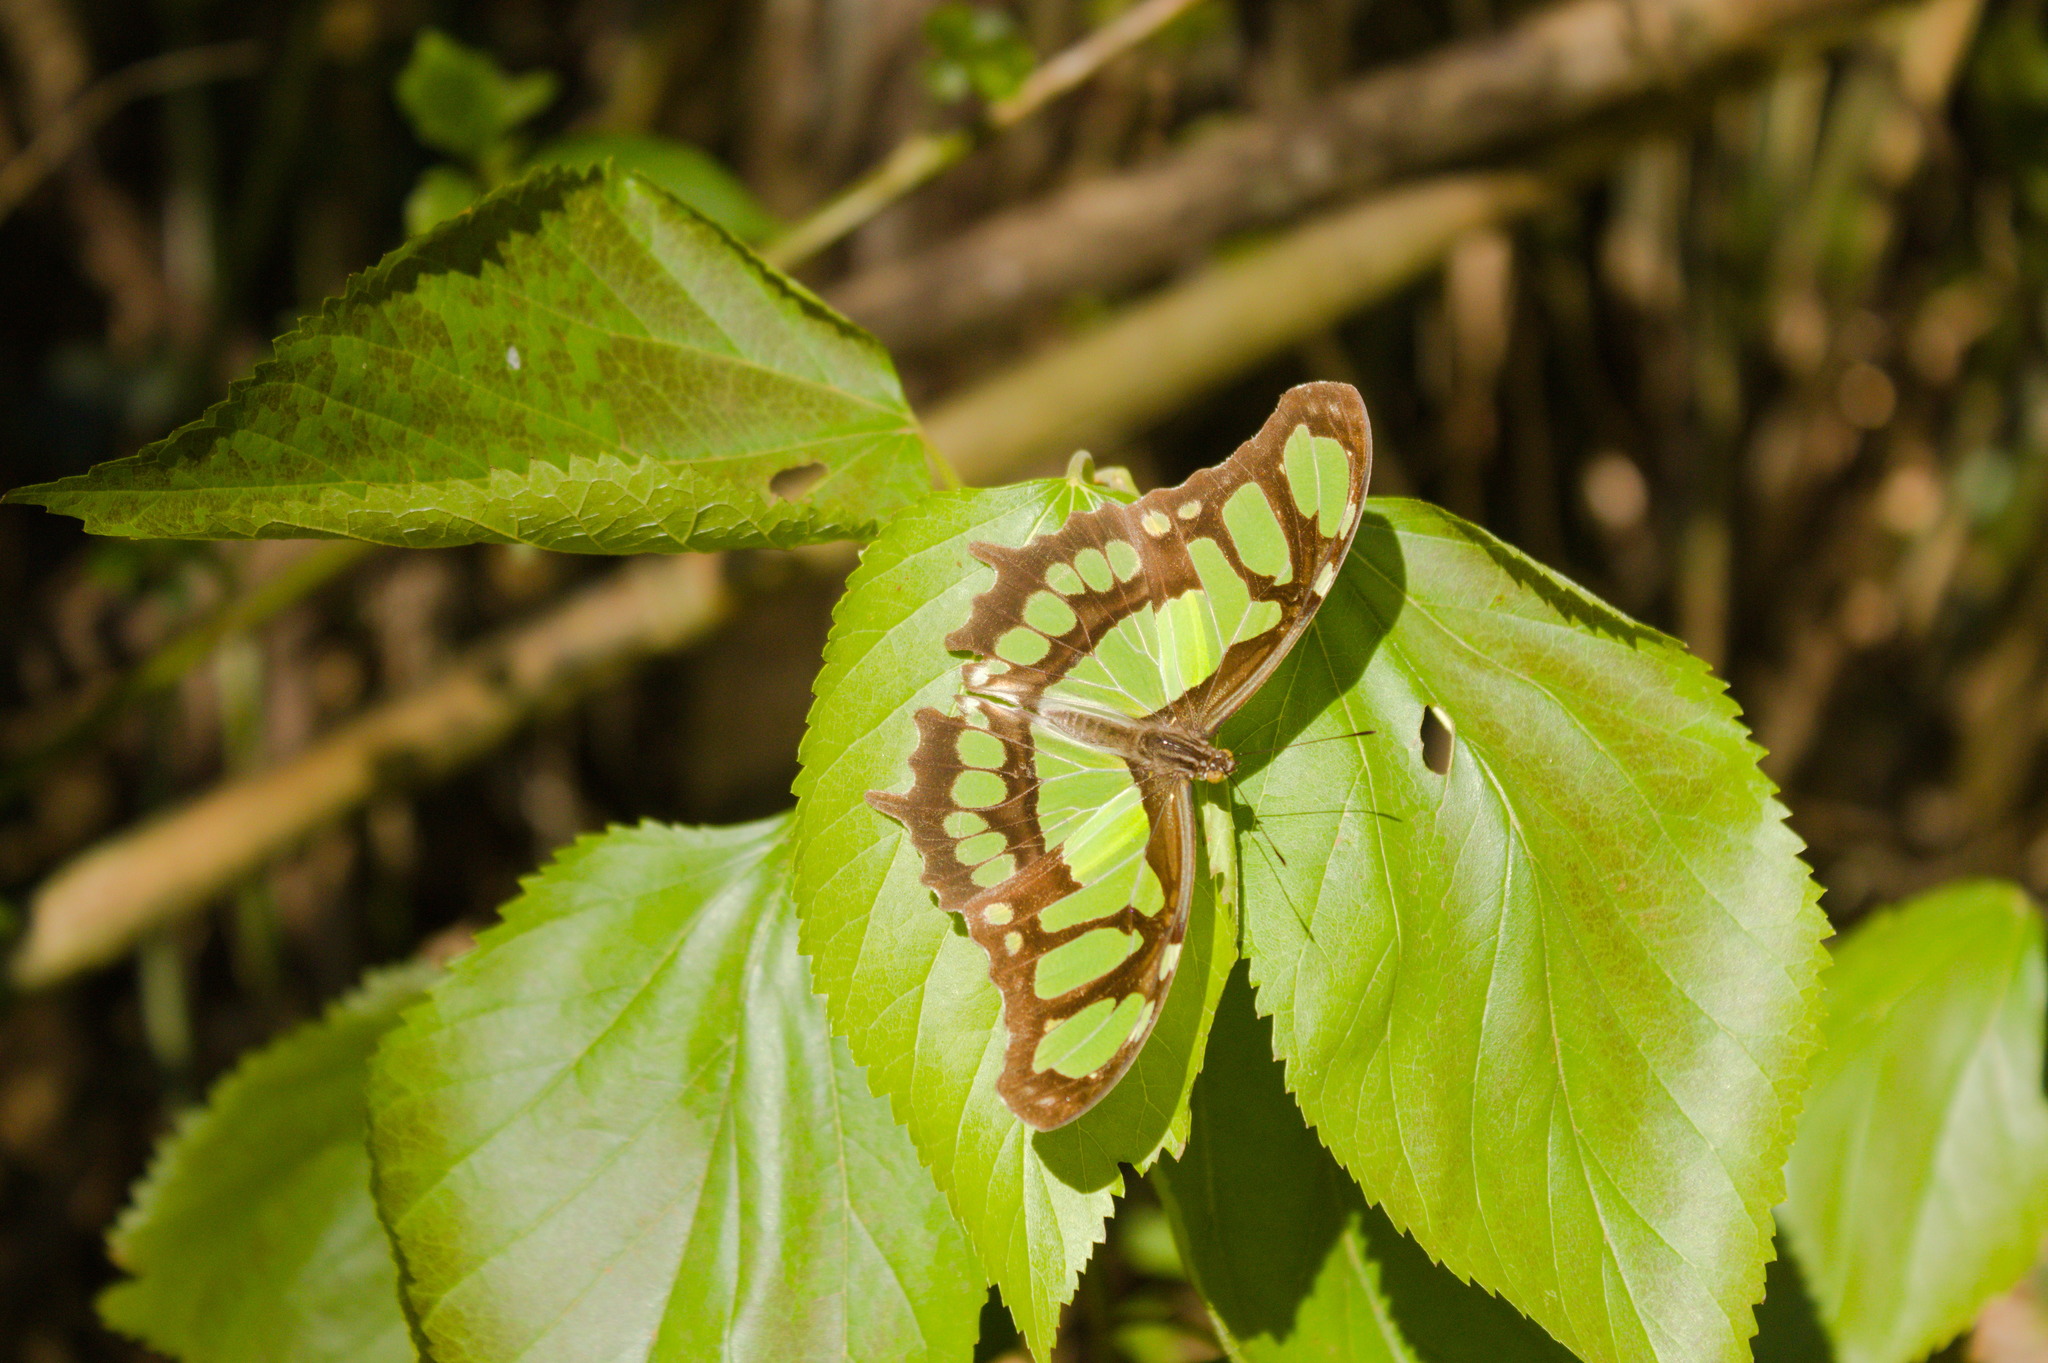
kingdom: Animalia
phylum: Arthropoda
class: Insecta
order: Lepidoptera
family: Nymphalidae
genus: Siproeta
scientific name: Siproeta stelenes
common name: Malachite
